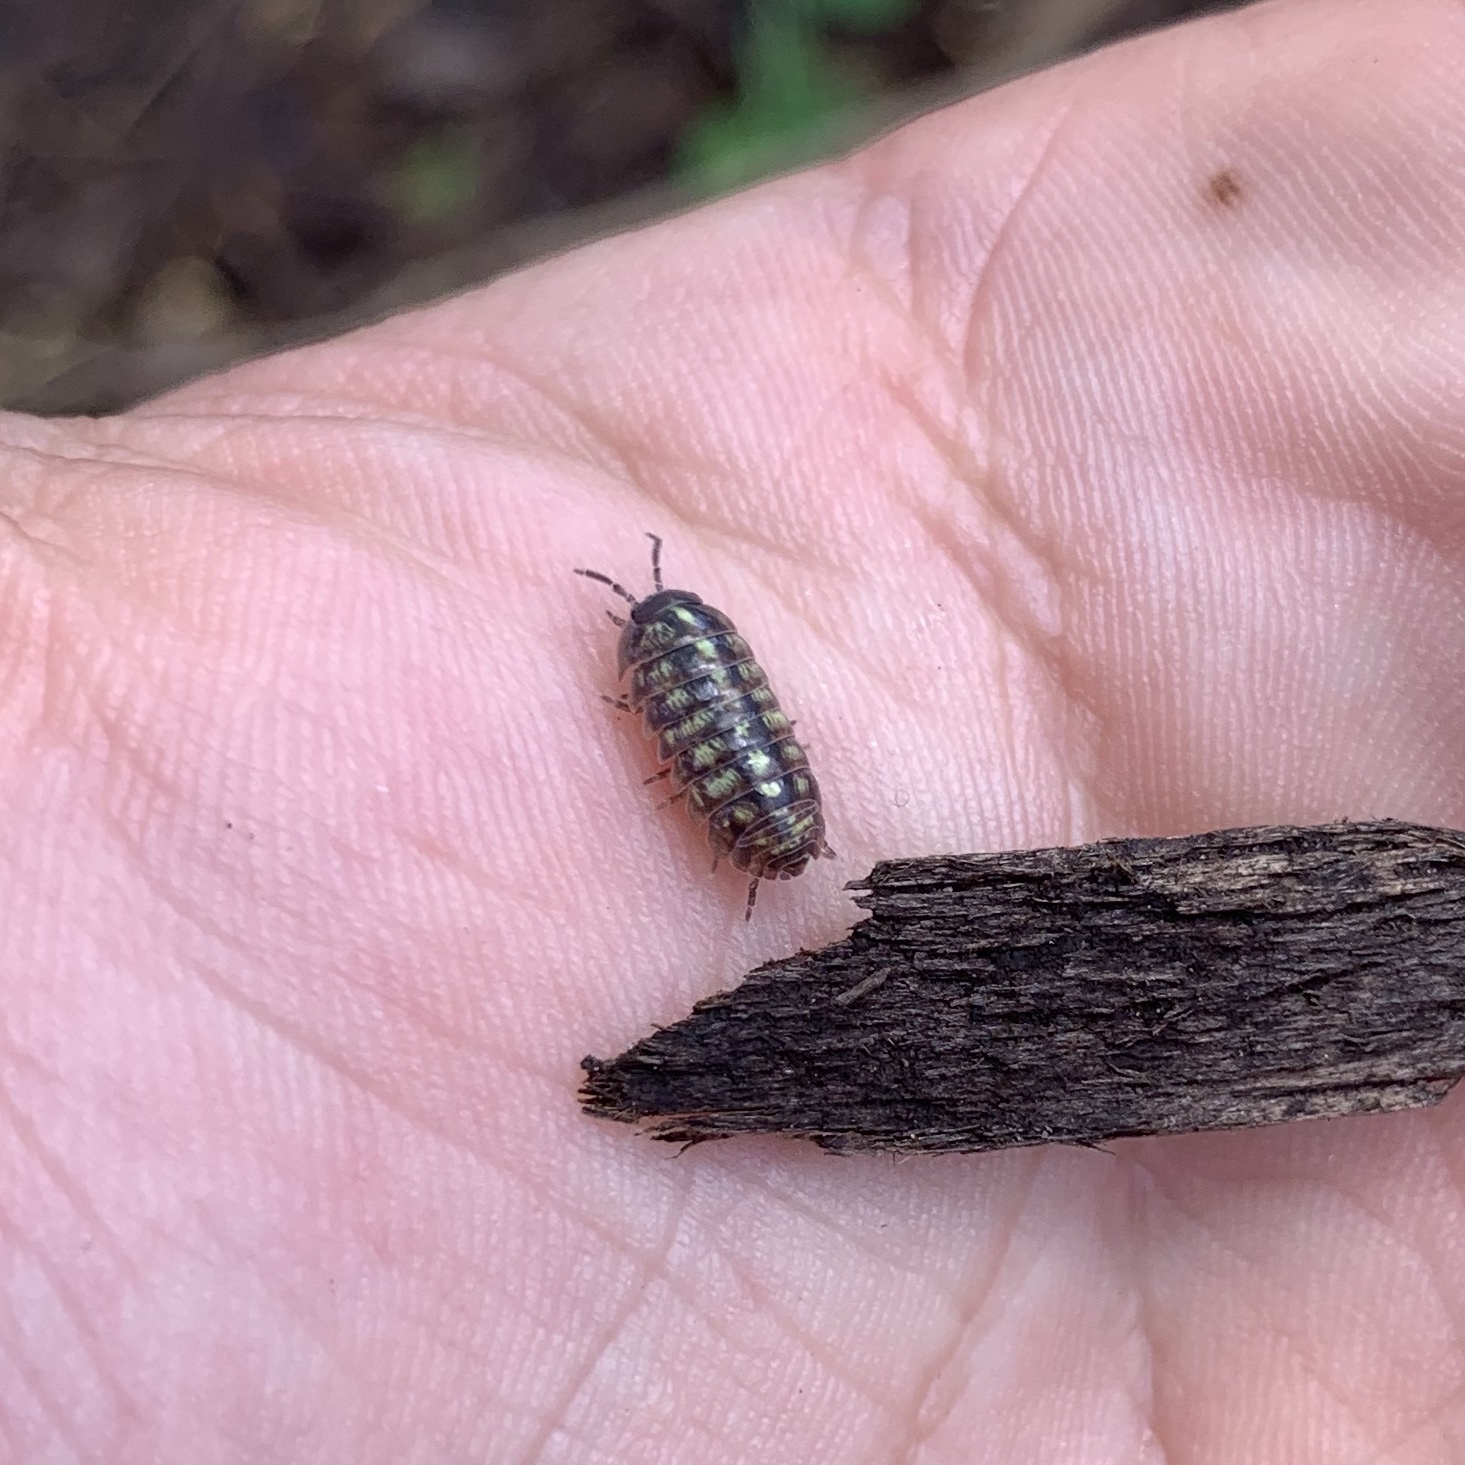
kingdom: Animalia
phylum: Arthropoda
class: Malacostraca
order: Isopoda
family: Armadillidiidae
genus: Armadillidium
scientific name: Armadillidium vulgare
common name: Common pill woodlouse
